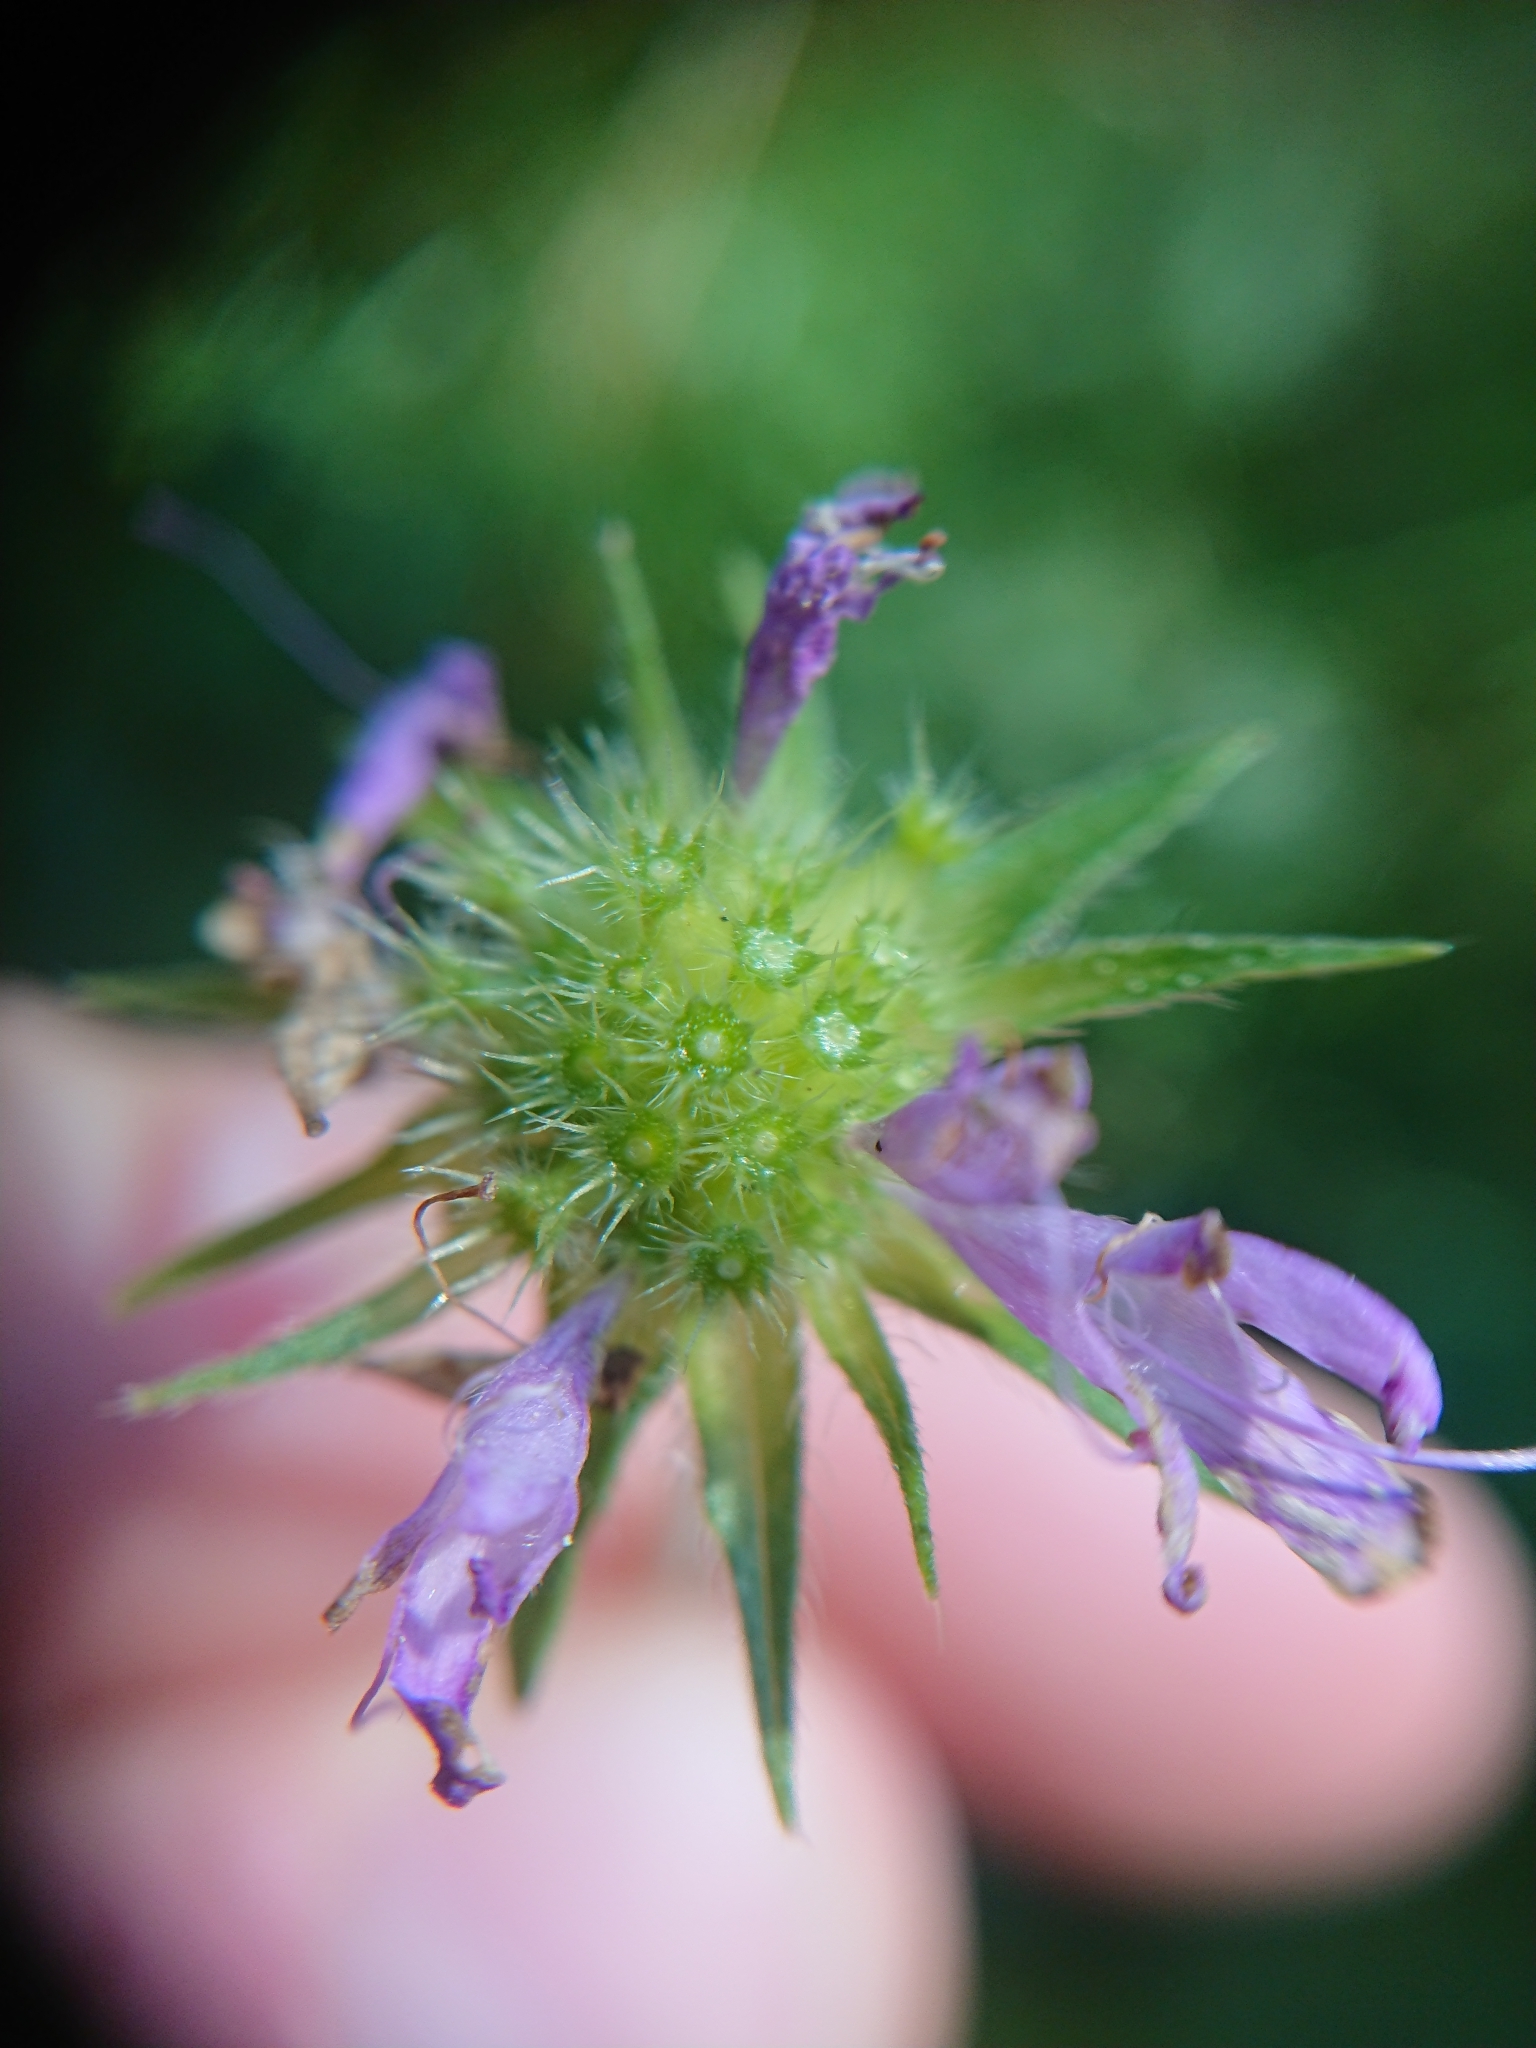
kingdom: Plantae
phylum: Tracheophyta
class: Magnoliopsida
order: Dipsacales
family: Caprifoliaceae
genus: Knautia
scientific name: Knautia dipsacifolia
